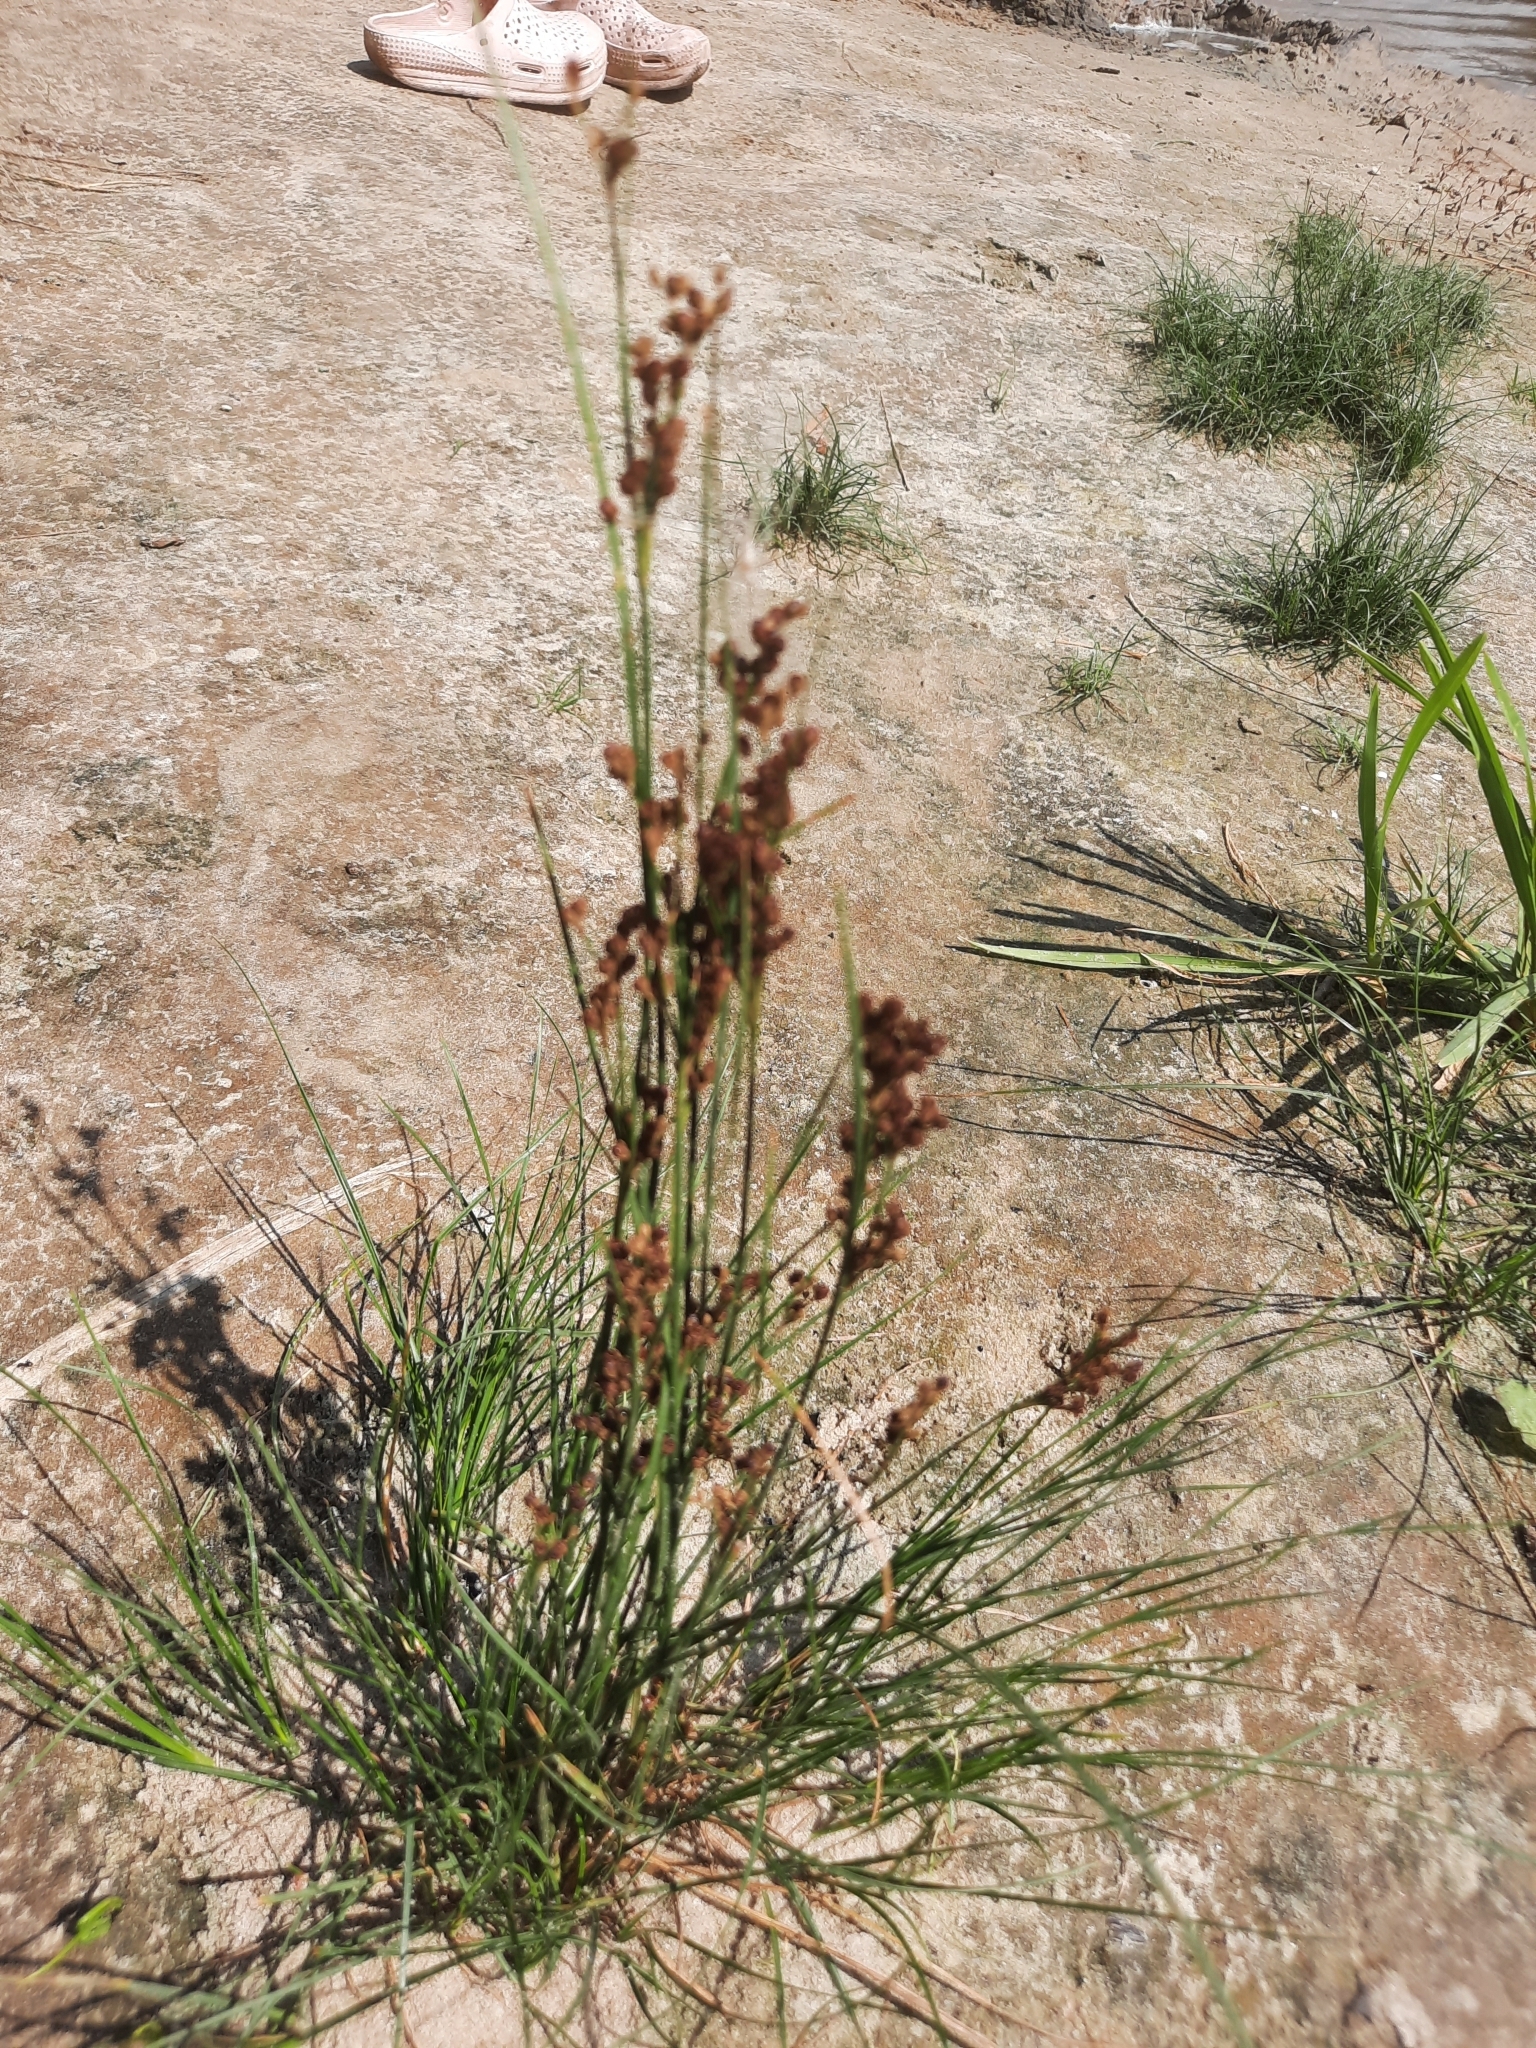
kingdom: Plantae
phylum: Tracheophyta
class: Liliopsida
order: Poales
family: Juncaceae
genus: Juncus
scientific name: Juncus compressus
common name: Round-fruited rush
